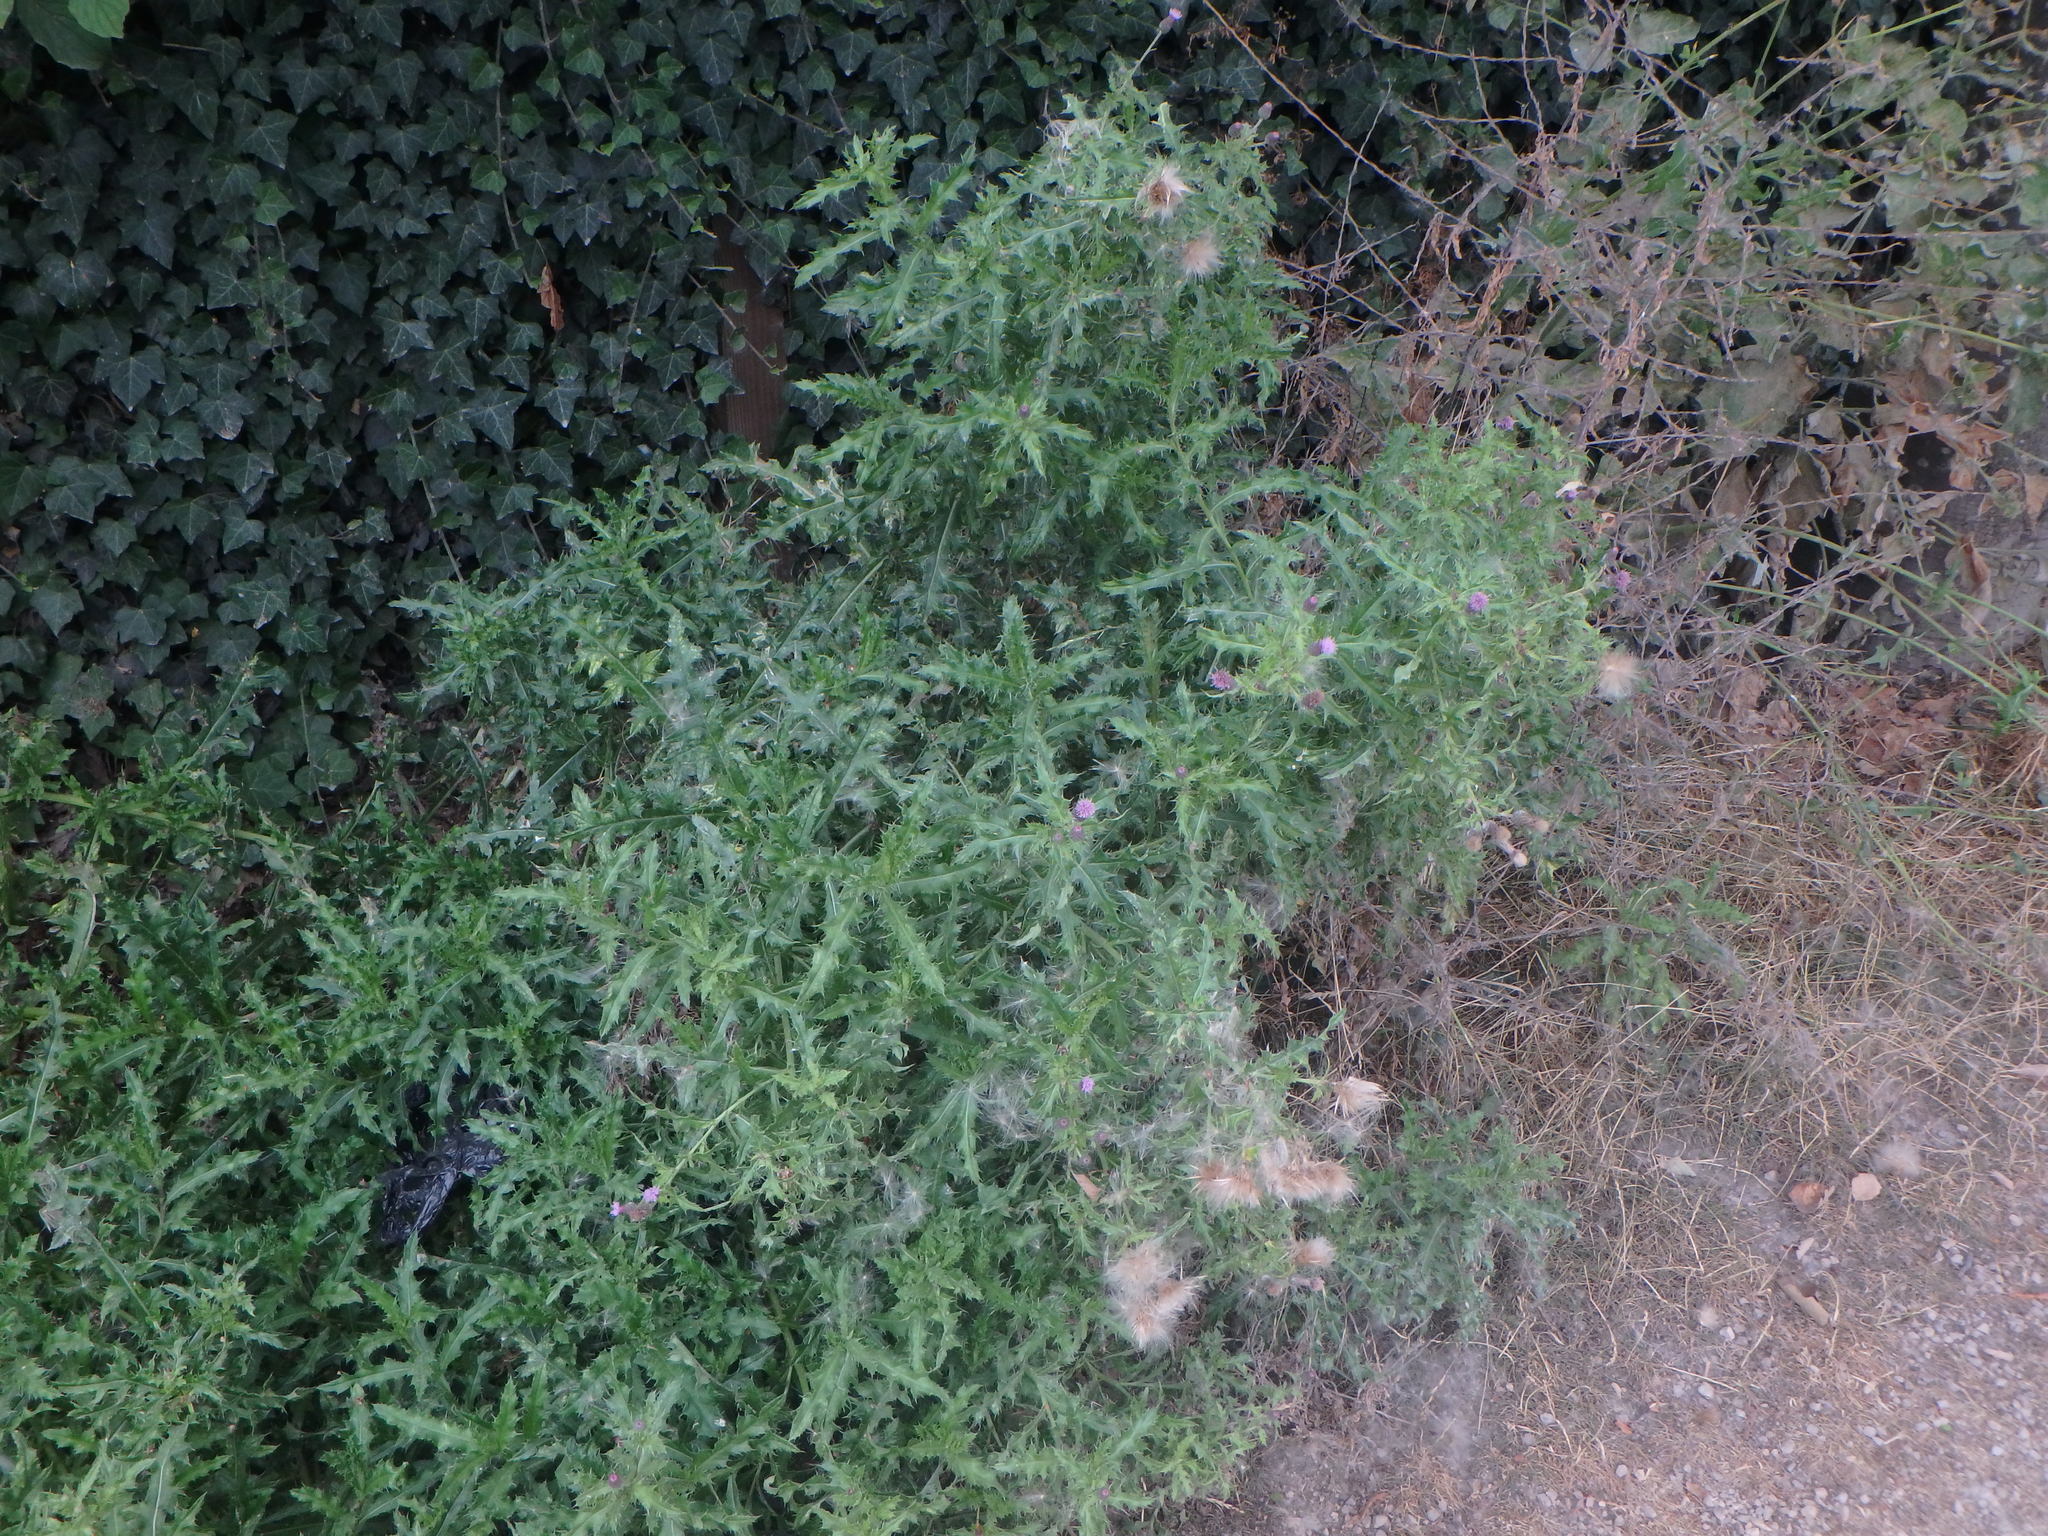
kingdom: Plantae
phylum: Tracheophyta
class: Magnoliopsida
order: Asterales
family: Asteraceae
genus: Cirsium
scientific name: Cirsium arvense
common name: Creeping thistle
